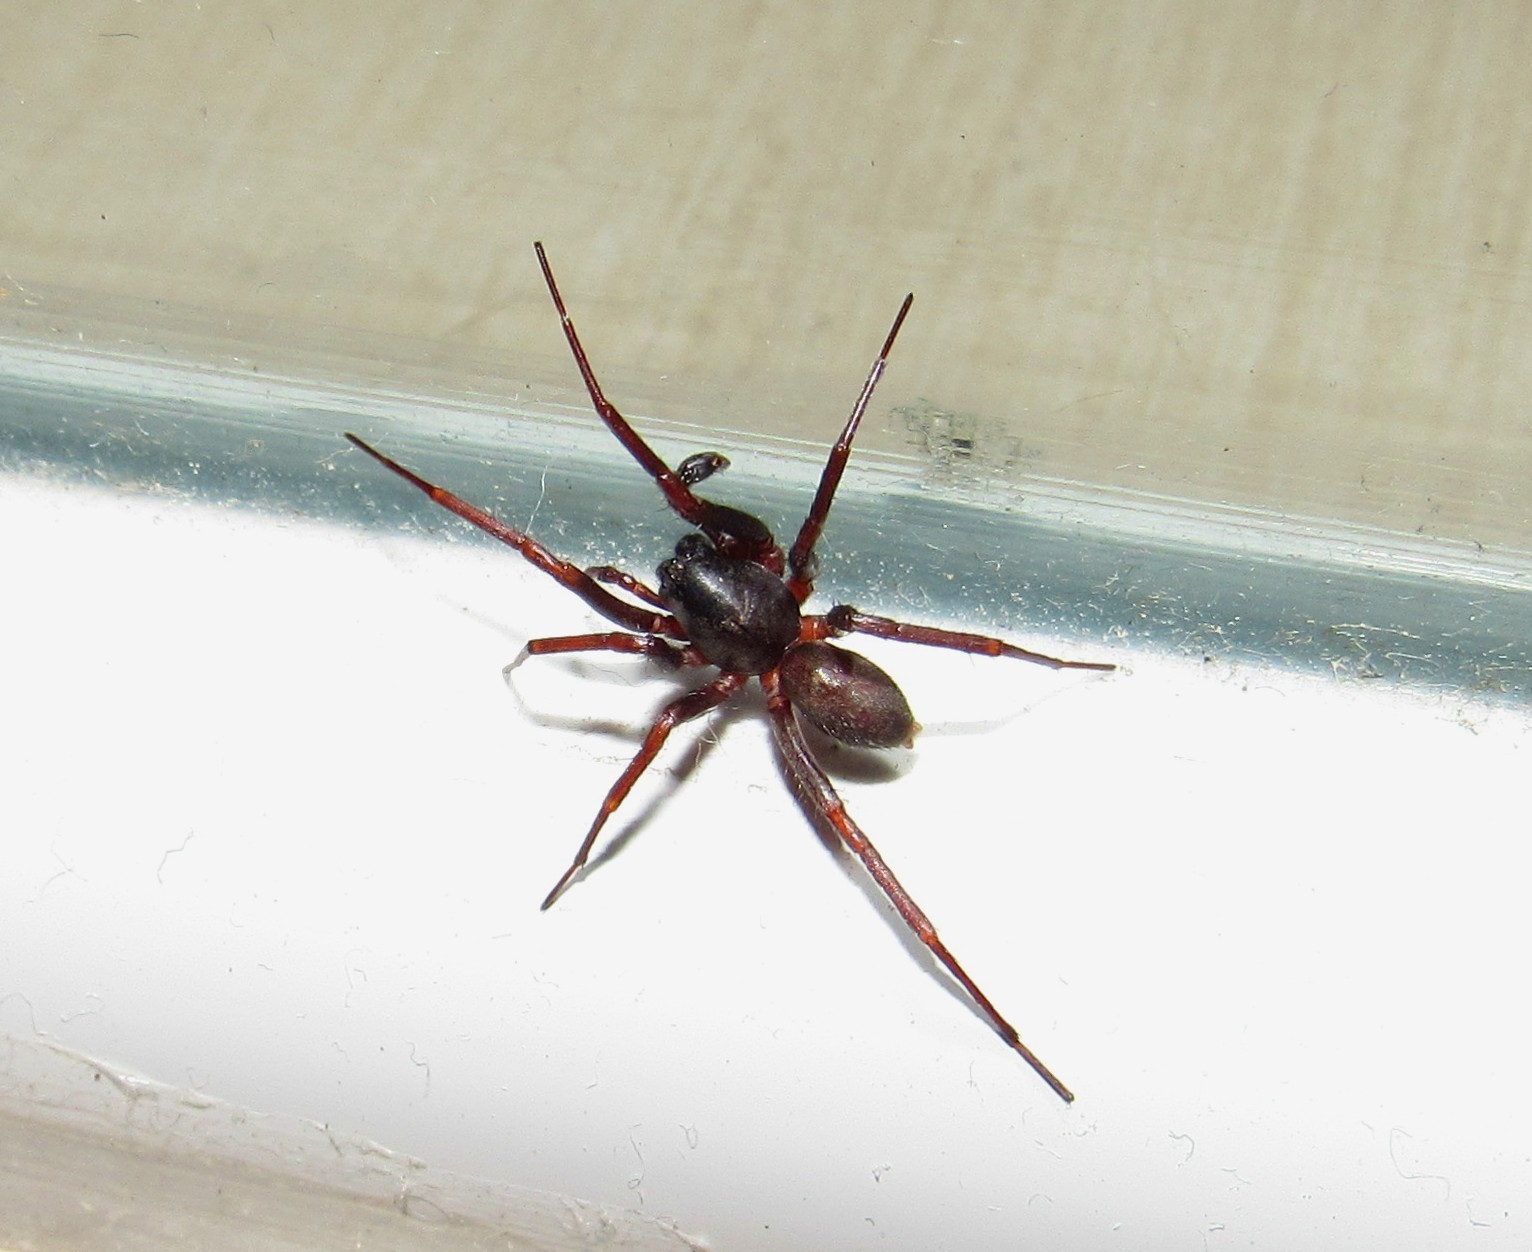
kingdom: Animalia
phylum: Arthropoda
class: Arachnida
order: Araneae
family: Corinnidae
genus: Creugas
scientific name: Creugas gulosus
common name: Corinnid sac spiders
